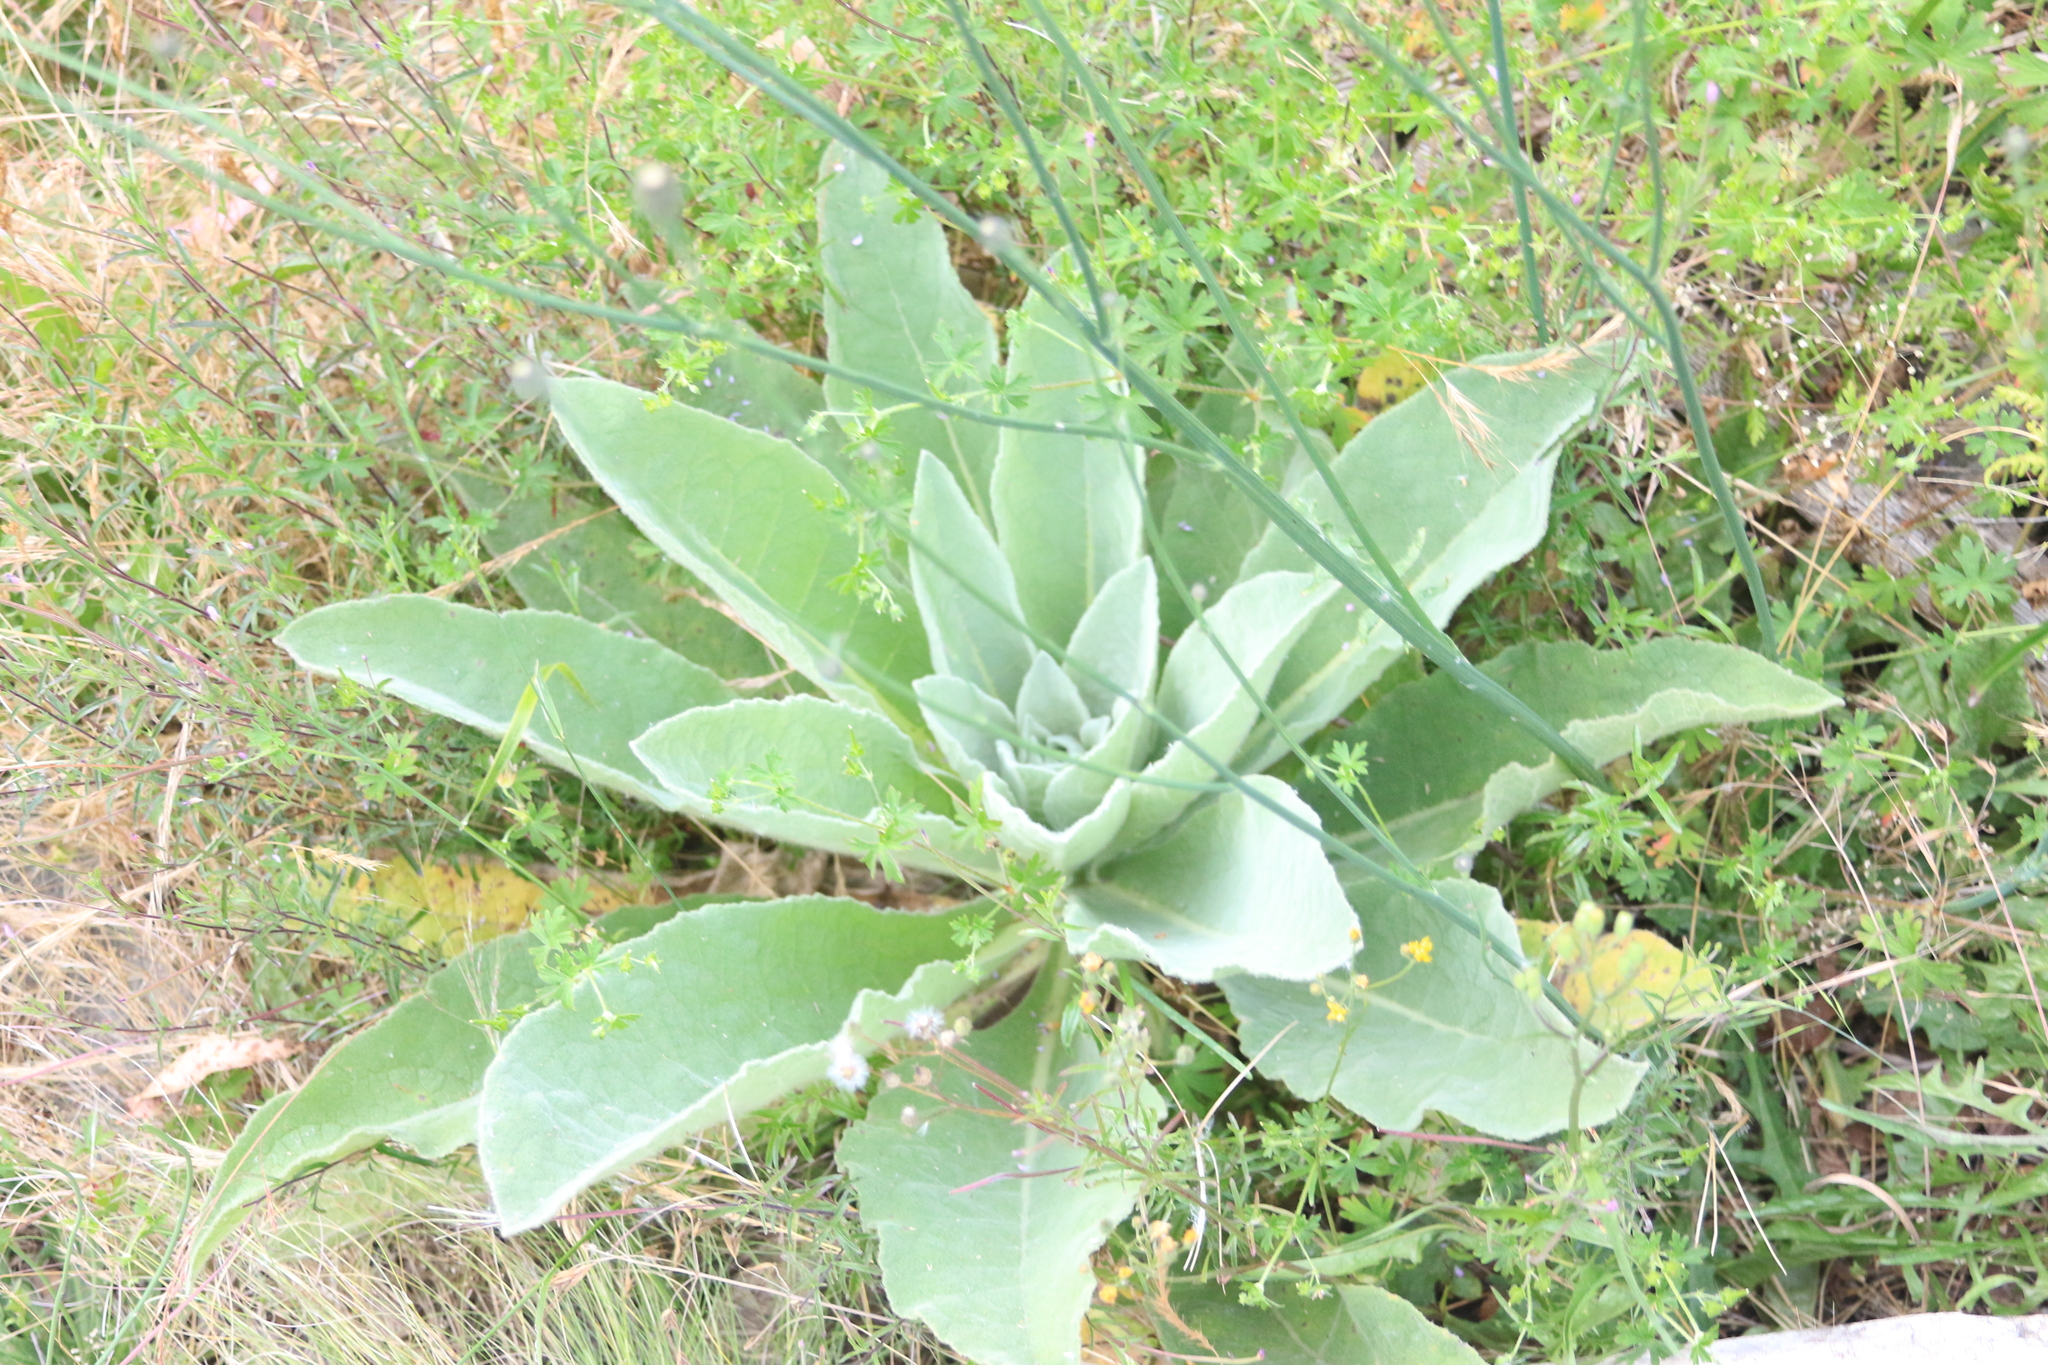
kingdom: Plantae
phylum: Tracheophyta
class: Magnoliopsida
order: Lamiales
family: Scrophulariaceae
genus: Verbascum
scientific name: Verbascum thapsus
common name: Common mullein
